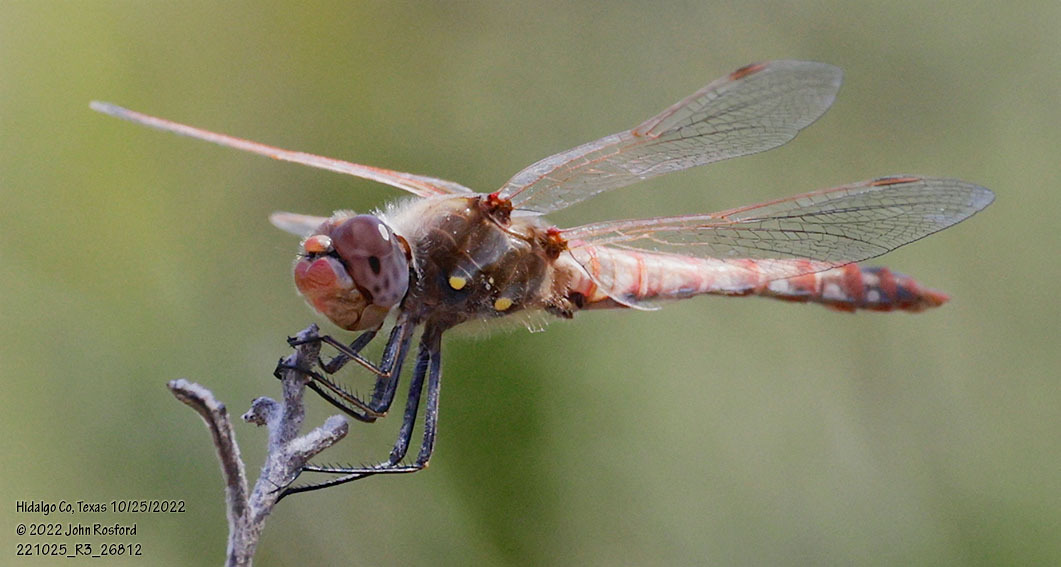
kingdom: Animalia
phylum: Arthropoda
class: Insecta
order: Odonata
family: Libellulidae
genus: Sympetrum
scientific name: Sympetrum corruptum
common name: Variegated meadowhawk
